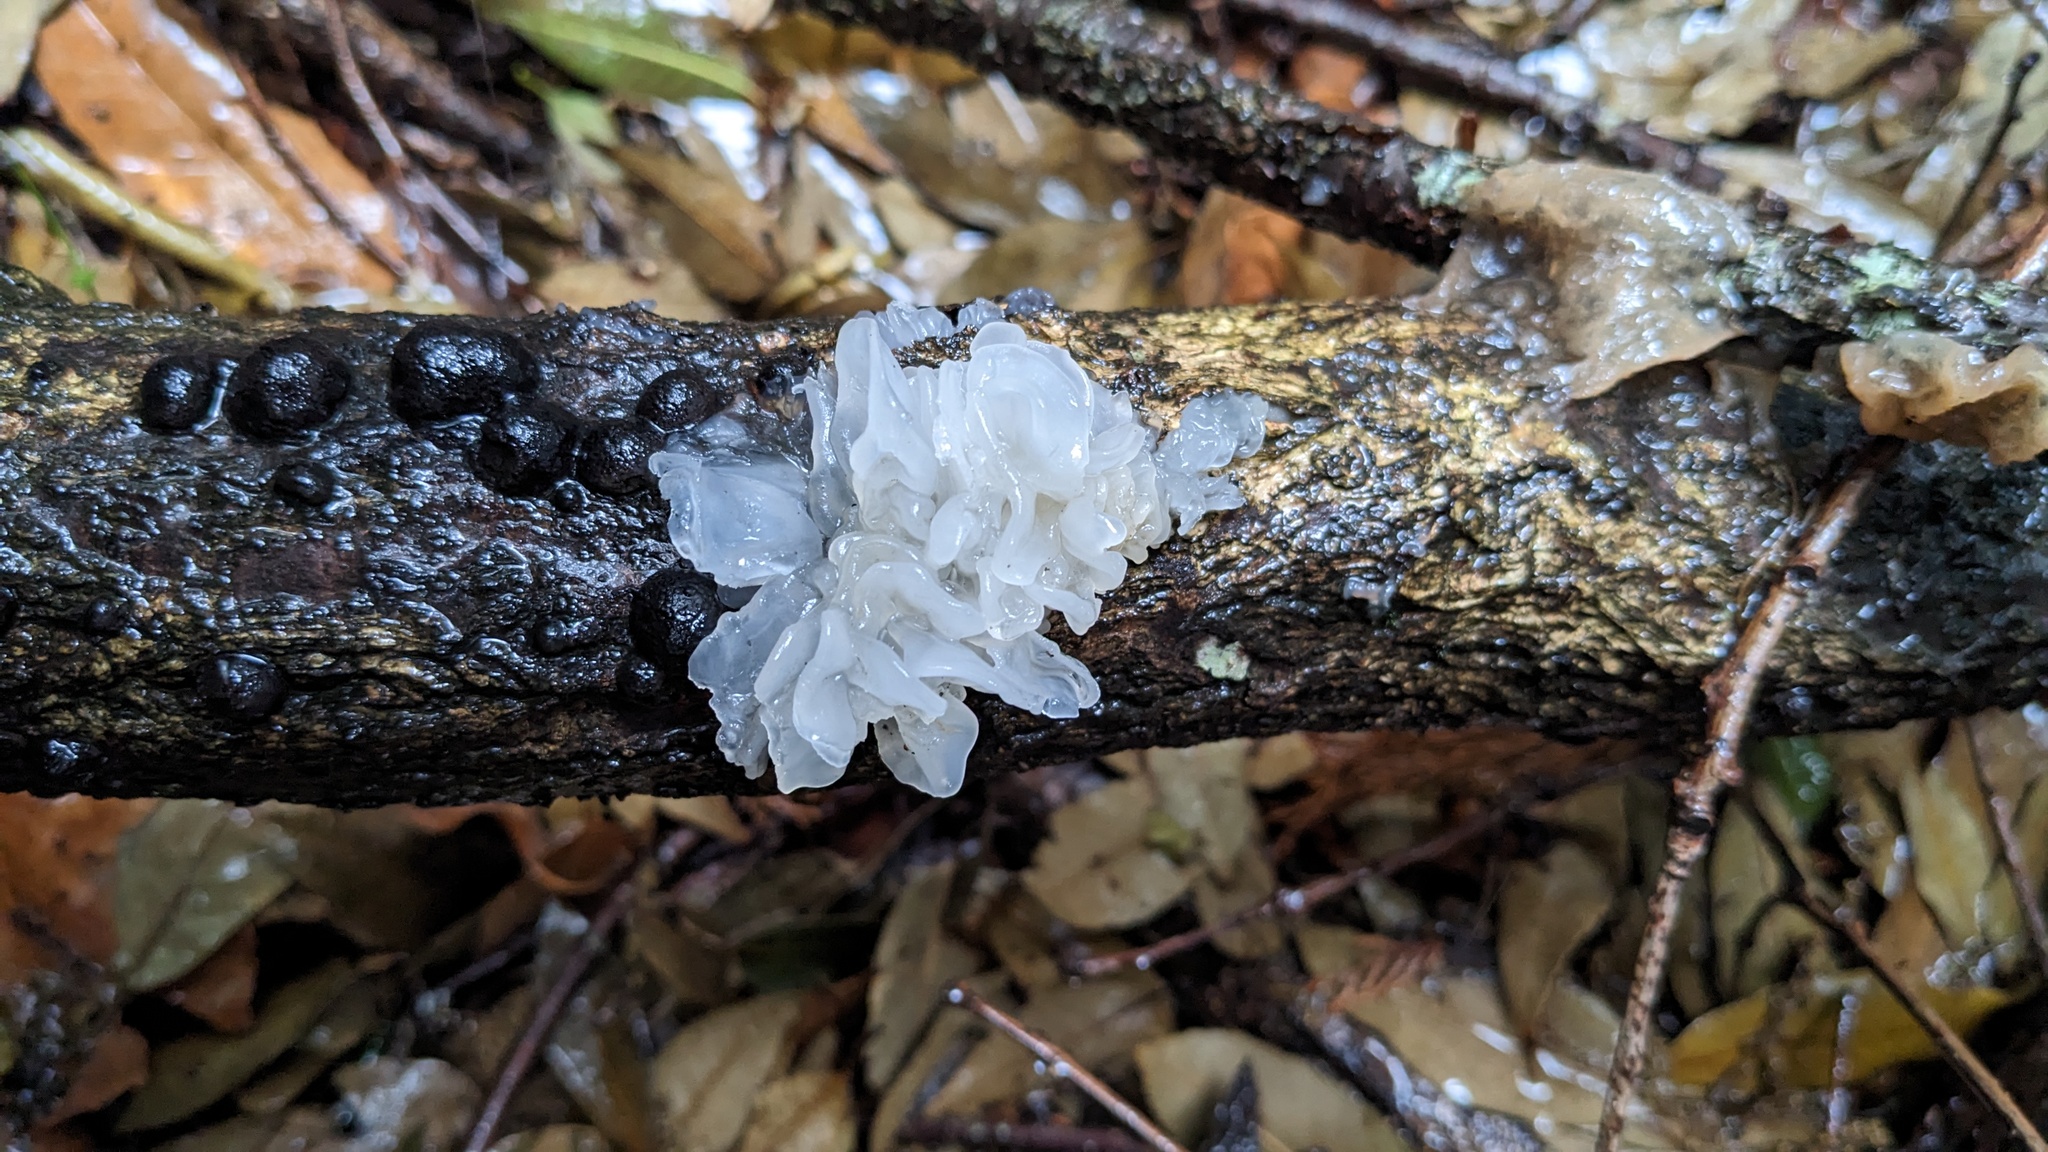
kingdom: Fungi
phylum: Basidiomycota
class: Tremellomycetes
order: Tremellales
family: Tremellaceae
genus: Tremella
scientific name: Tremella fuciformis
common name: Snow fungus
